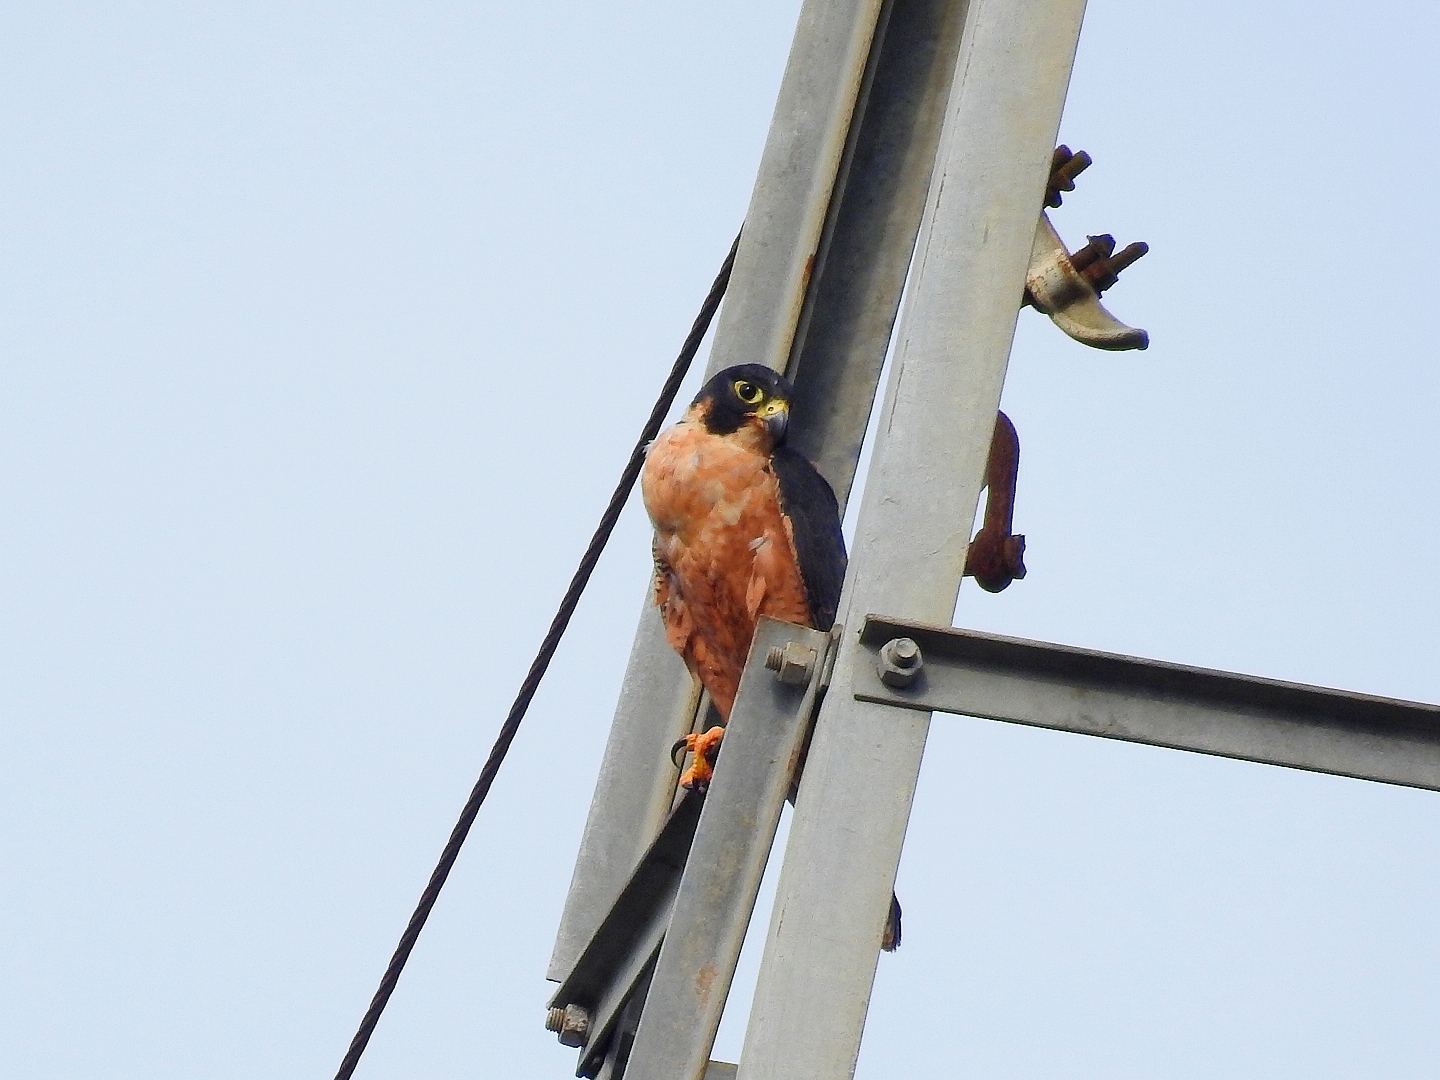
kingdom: Animalia
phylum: Chordata
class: Aves
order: Falconiformes
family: Falconidae
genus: Falco
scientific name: Falco peregrinus
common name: Peregrine falcon
